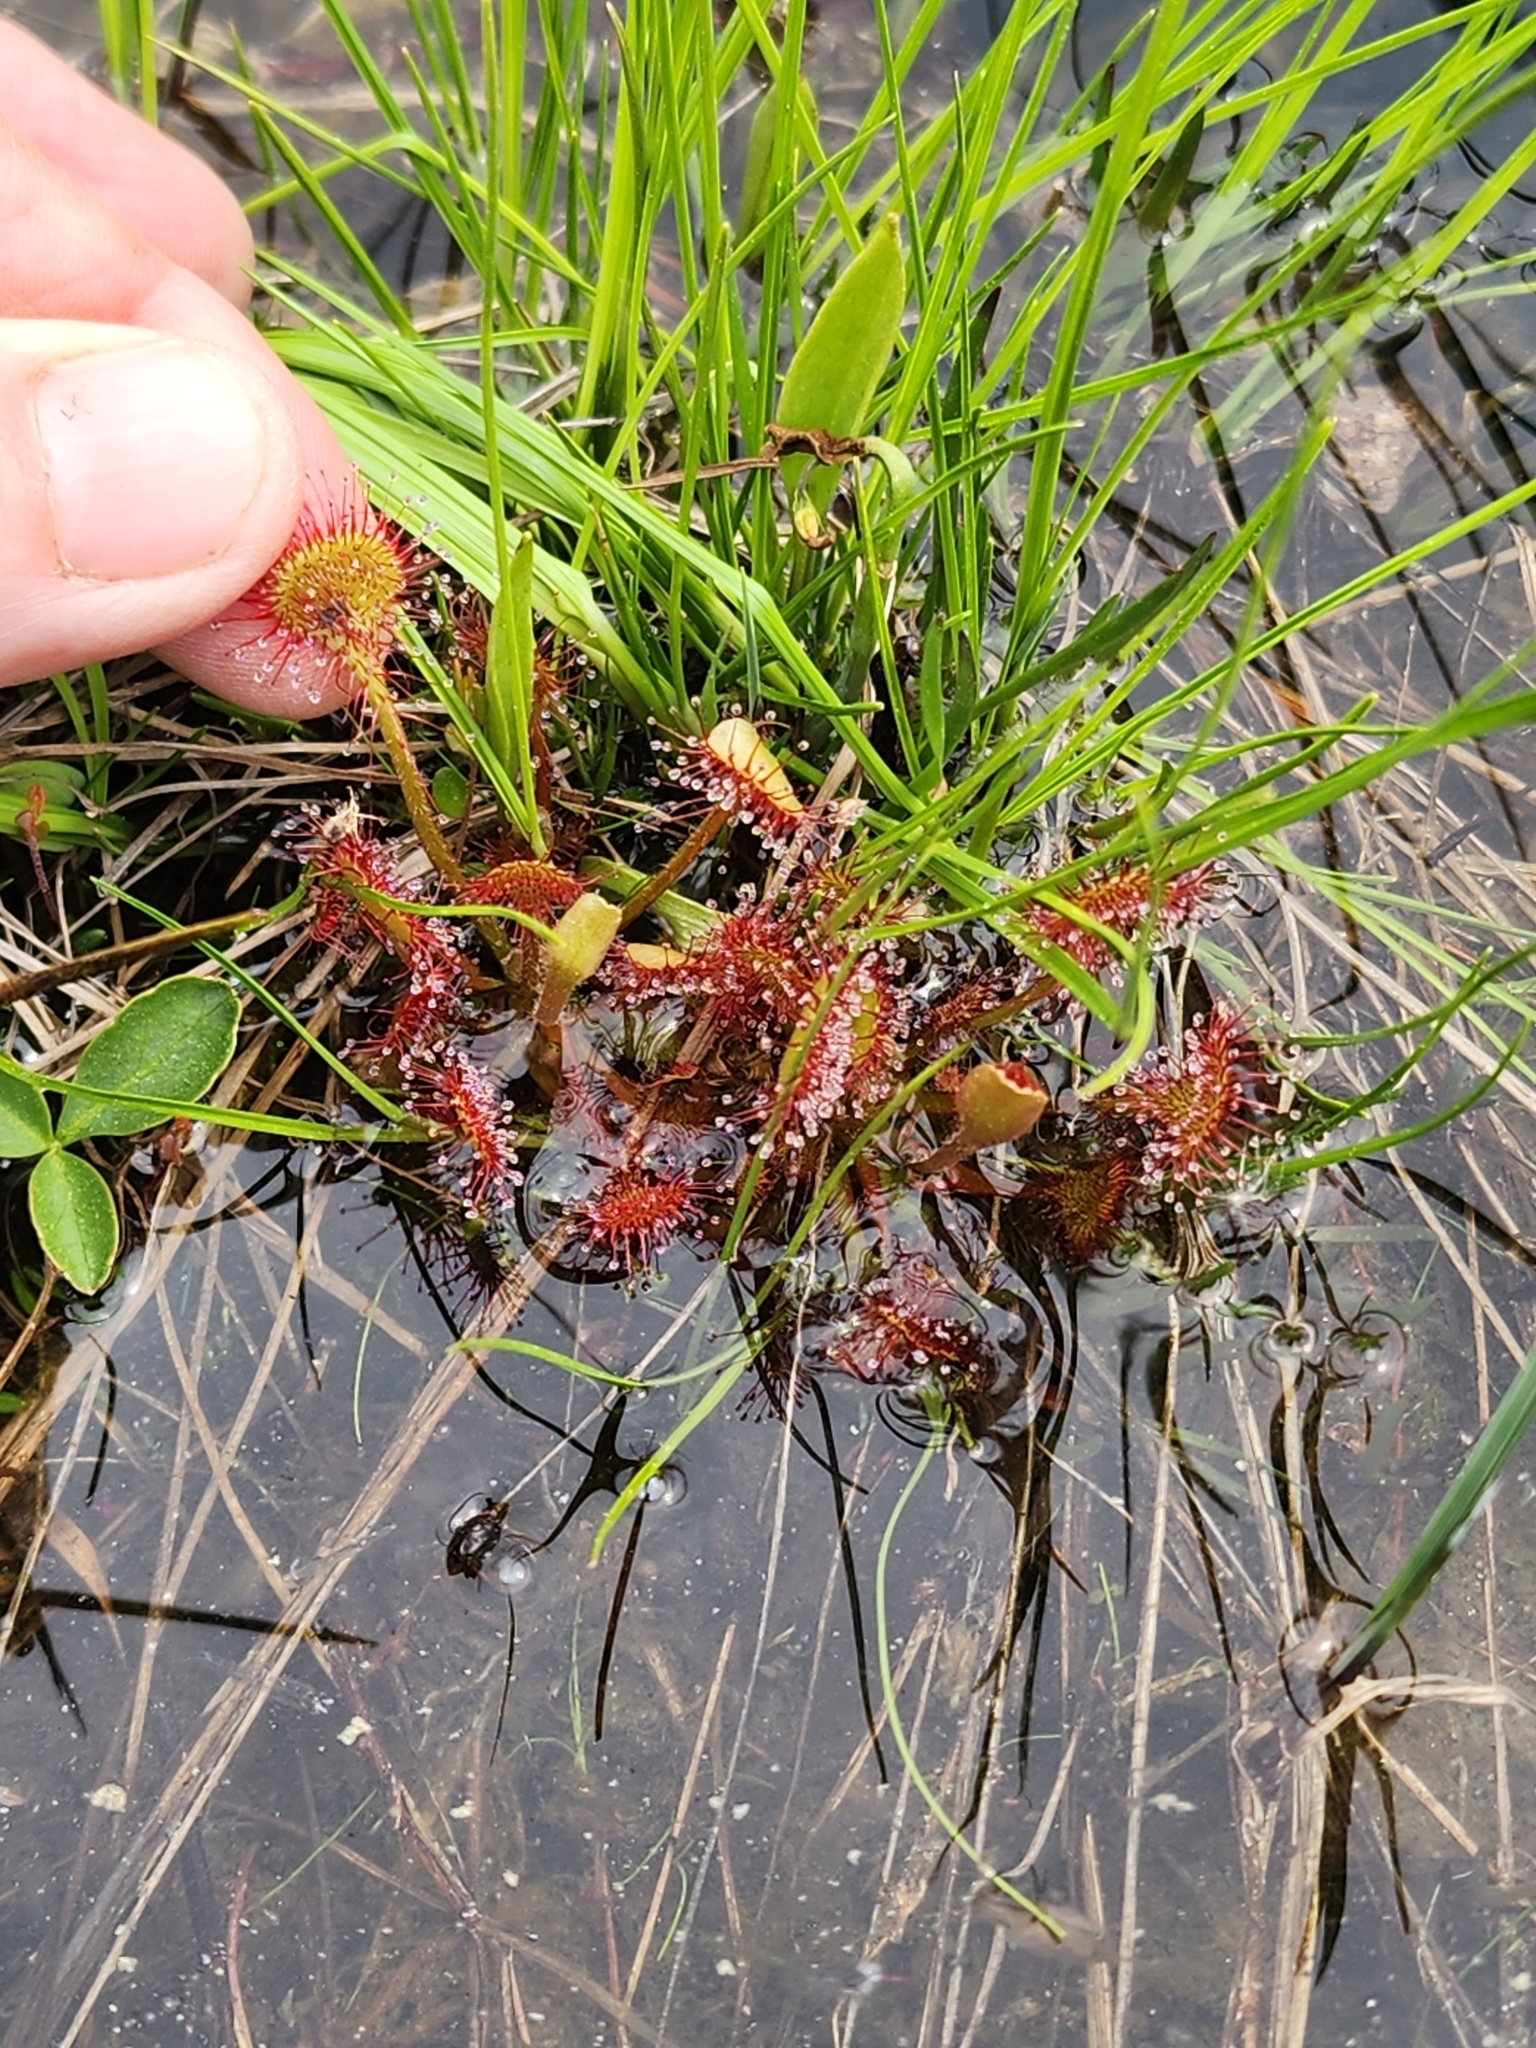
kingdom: Plantae
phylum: Tracheophyta
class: Magnoliopsida
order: Caryophyllales
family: Droseraceae
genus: Drosera
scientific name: Drosera rotundifolia
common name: Round-leaved sundew
